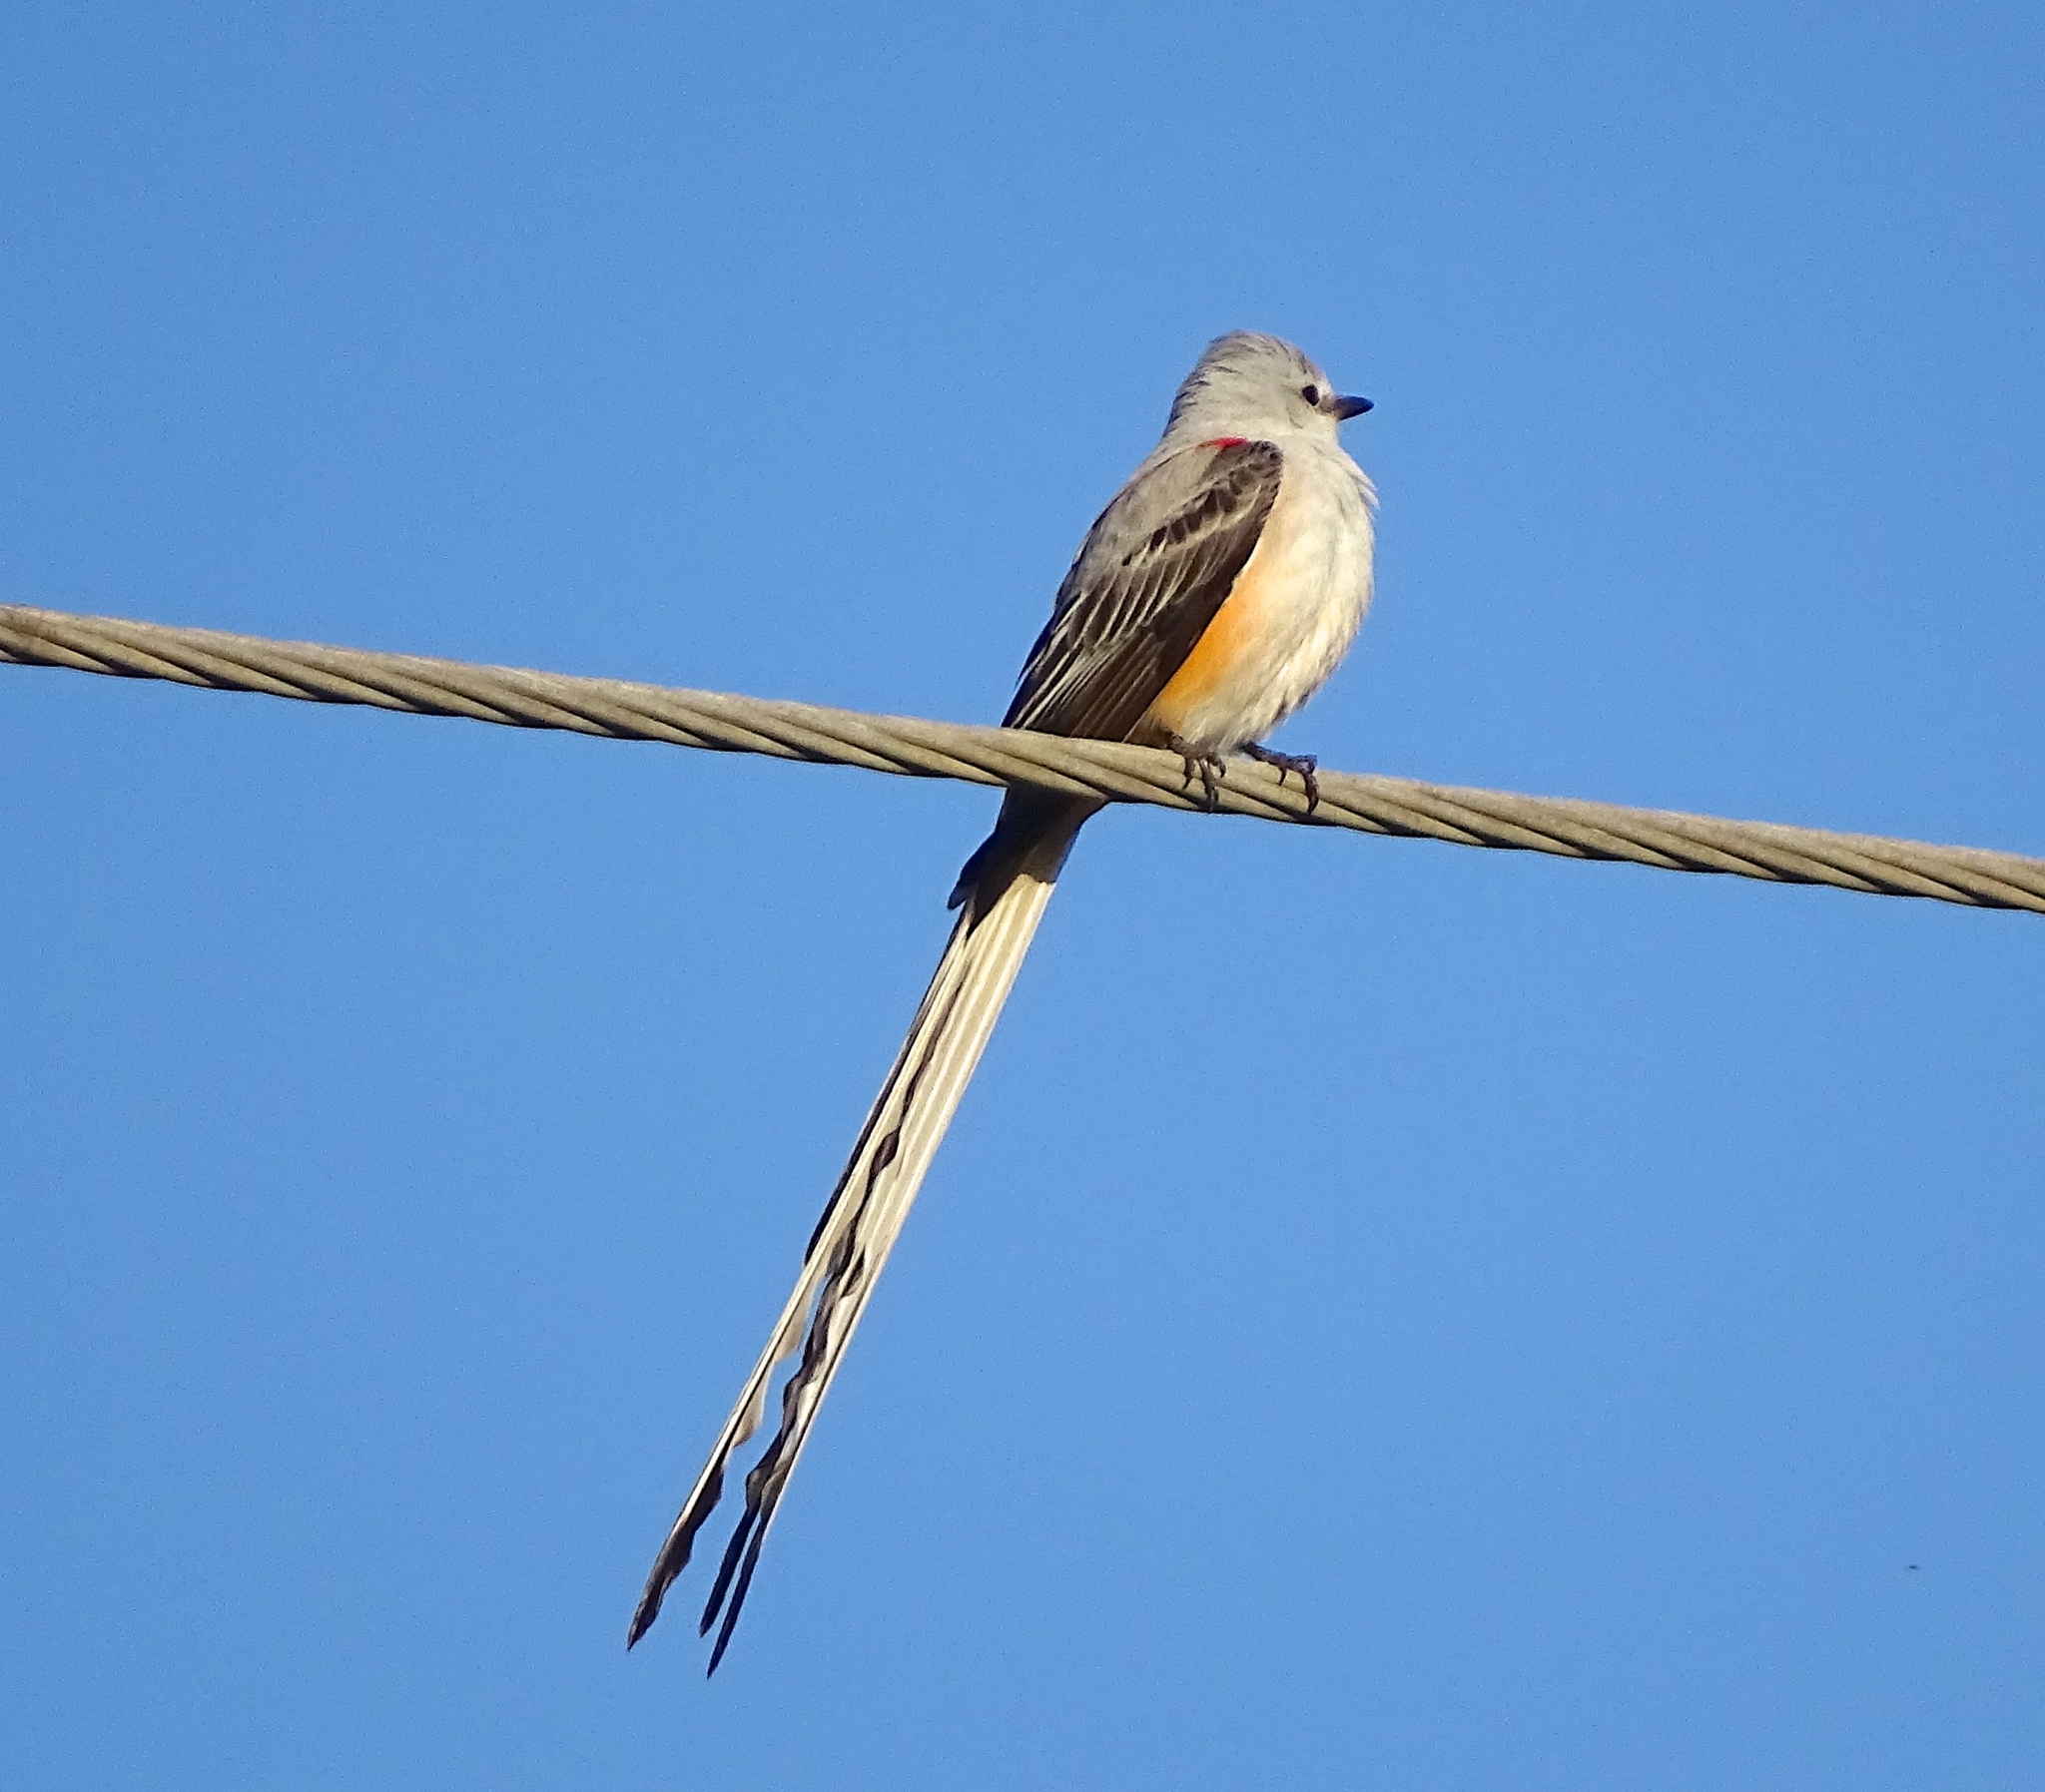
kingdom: Animalia
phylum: Chordata
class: Aves
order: Passeriformes
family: Tyrannidae
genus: Tyrannus
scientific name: Tyrannus forficatus
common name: Scissor-tailed flycatcher
